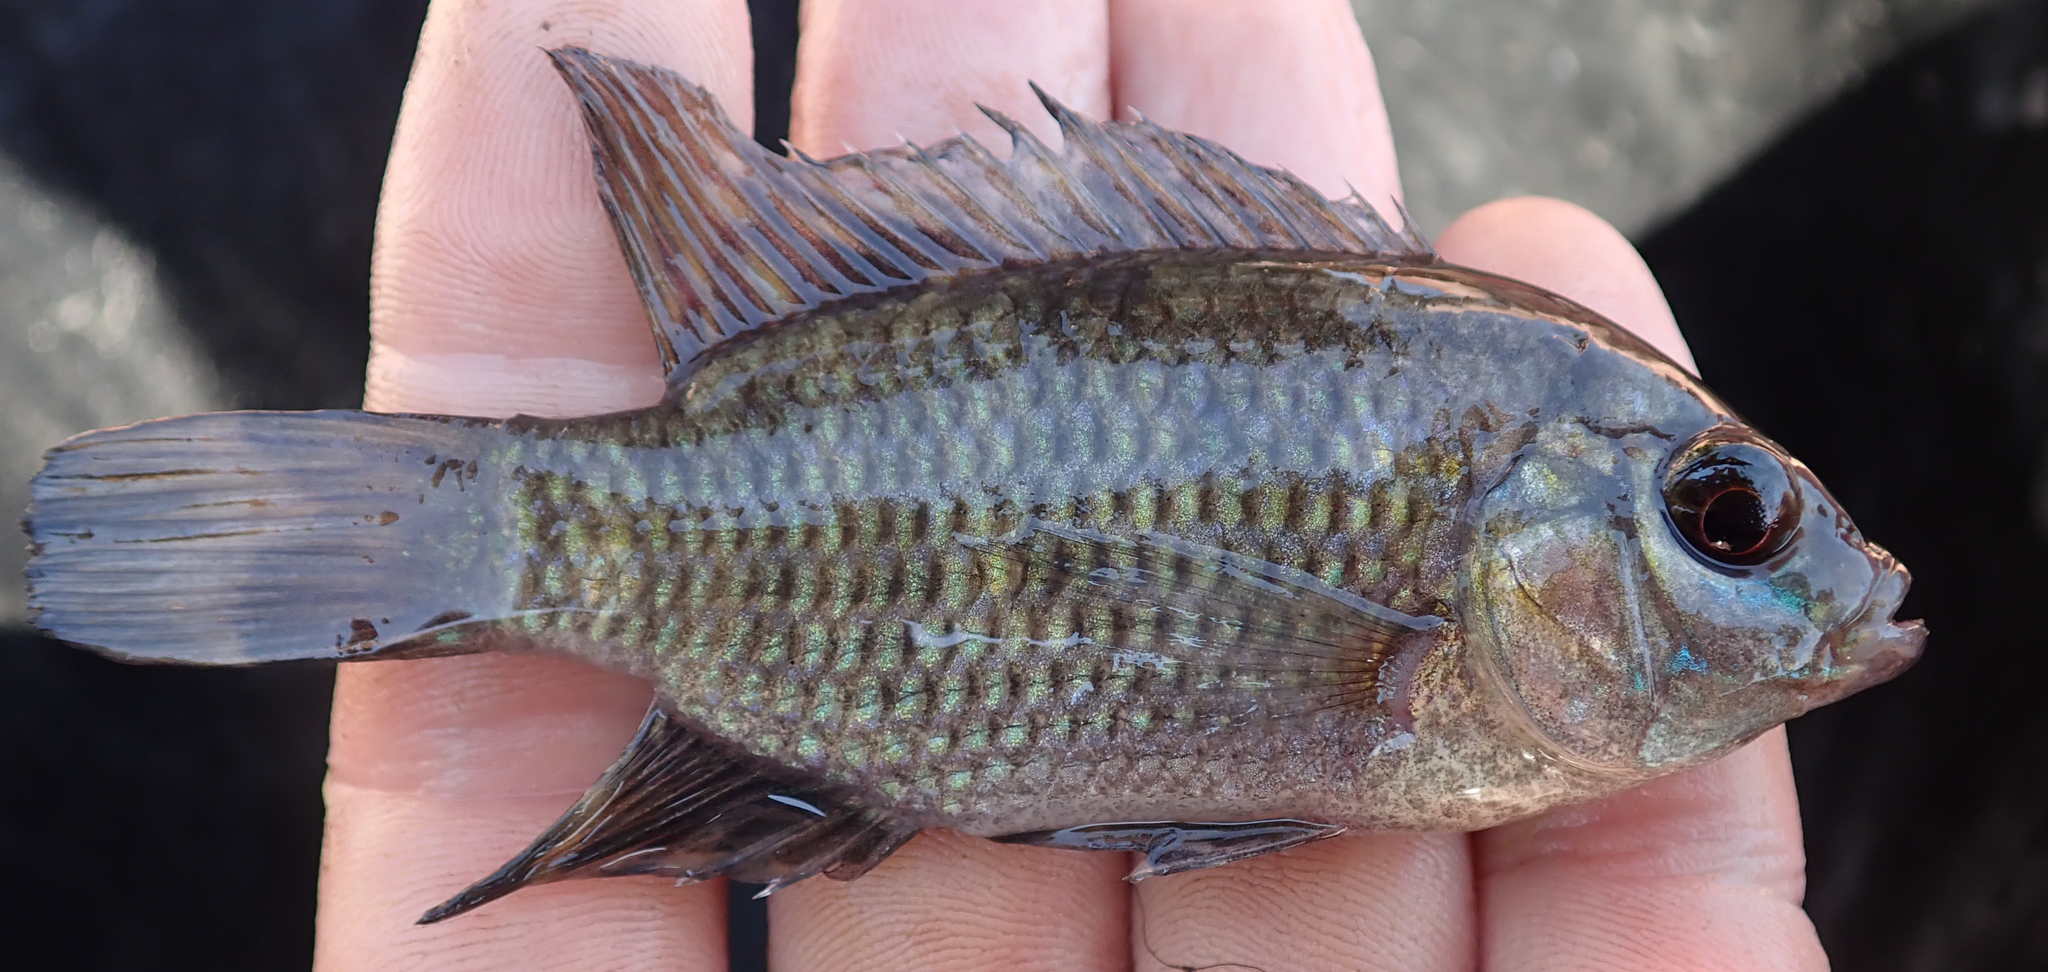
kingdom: Animalia
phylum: Chordata
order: Perciformes
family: Cichlidae
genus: Tilapia
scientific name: Tilapia sparrmanii
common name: Banded tilapia
